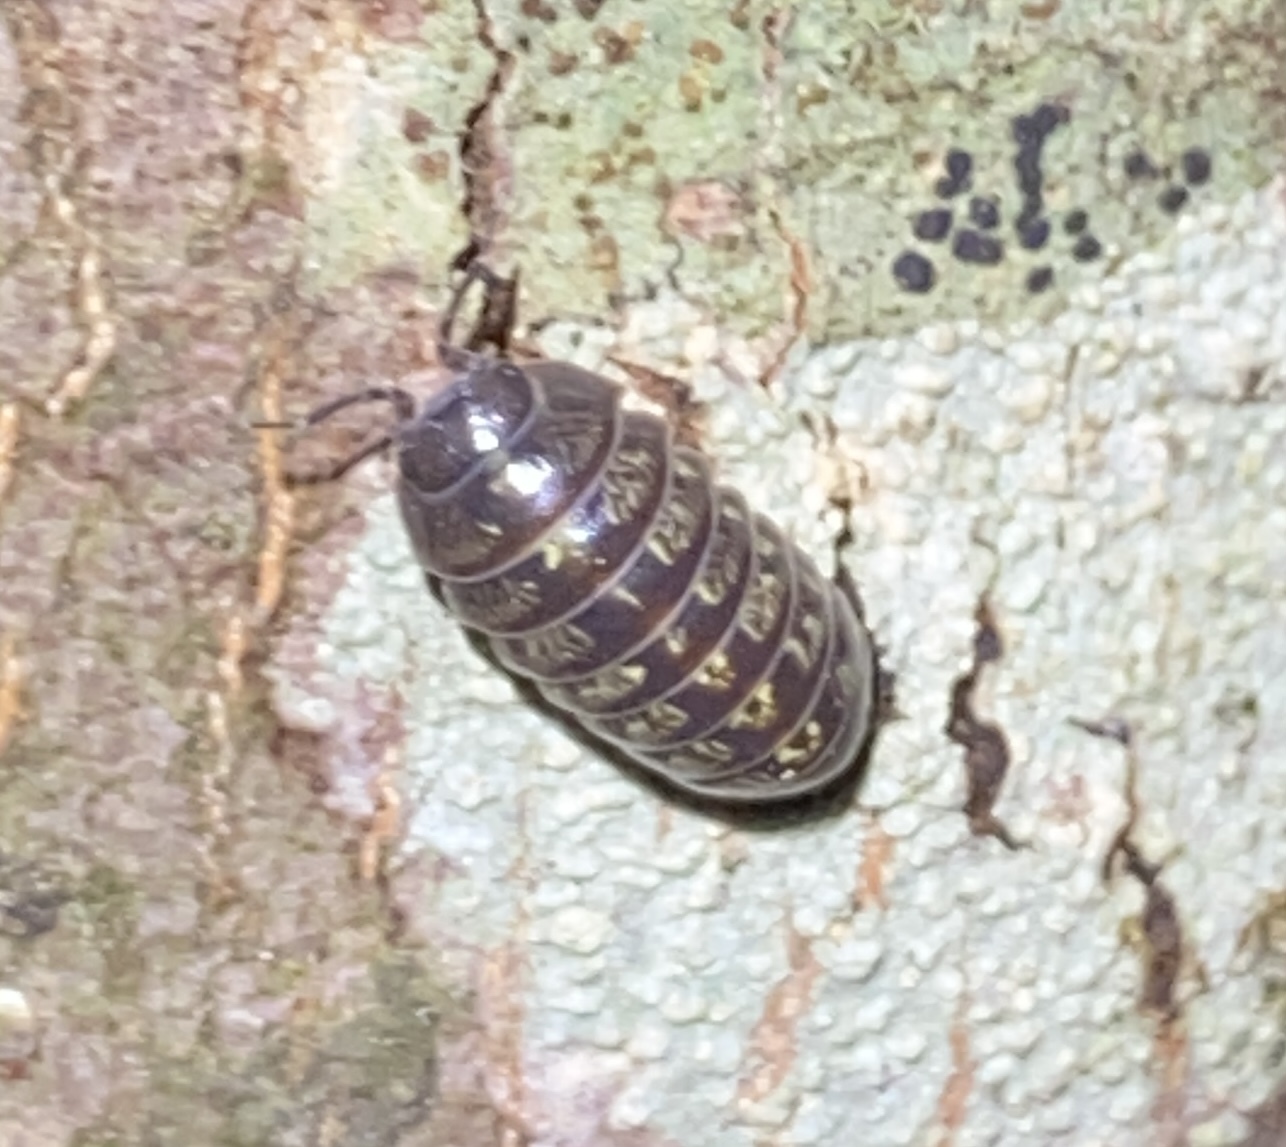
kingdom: Animalia
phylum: Arthropoda
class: Malacostraca
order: Isopoda
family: Armadillidiidae
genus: Armadillidium
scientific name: Armadillidium vulgare
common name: Common pill woodlouse
